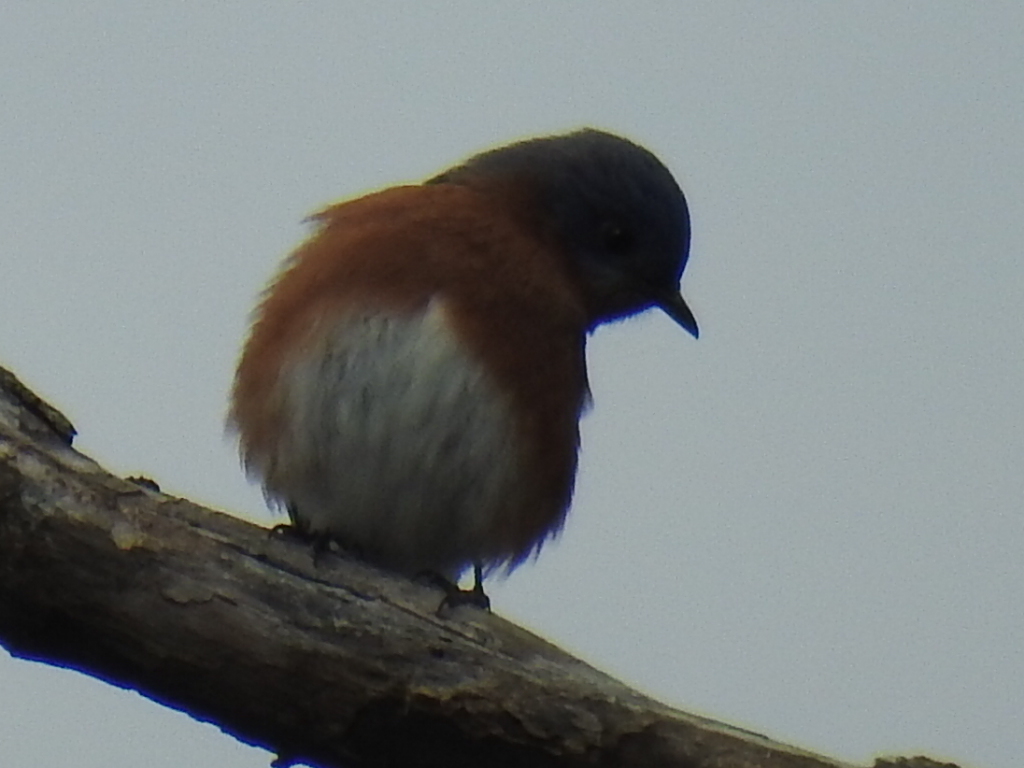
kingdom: Animalia
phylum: Chordata
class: Aves
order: Passeriformes
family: Turdidae
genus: Sialia
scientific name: Sialia sialis
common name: Eastern bluebird
